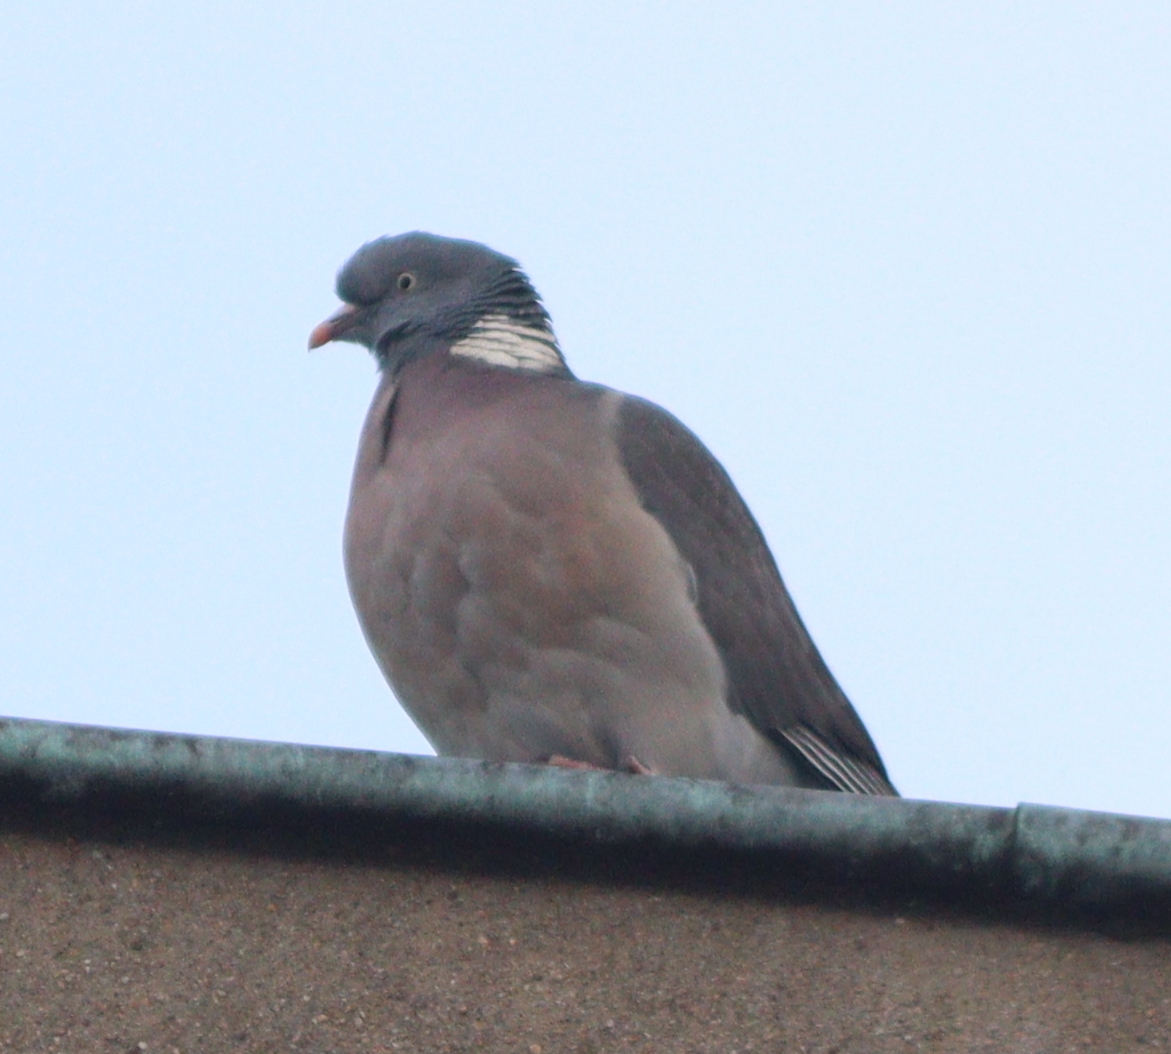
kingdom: Animalia
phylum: Chordata
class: Aves
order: Columbiformes
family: Columbidae
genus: Columba
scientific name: Columba palumbus
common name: Common wood pigeon
